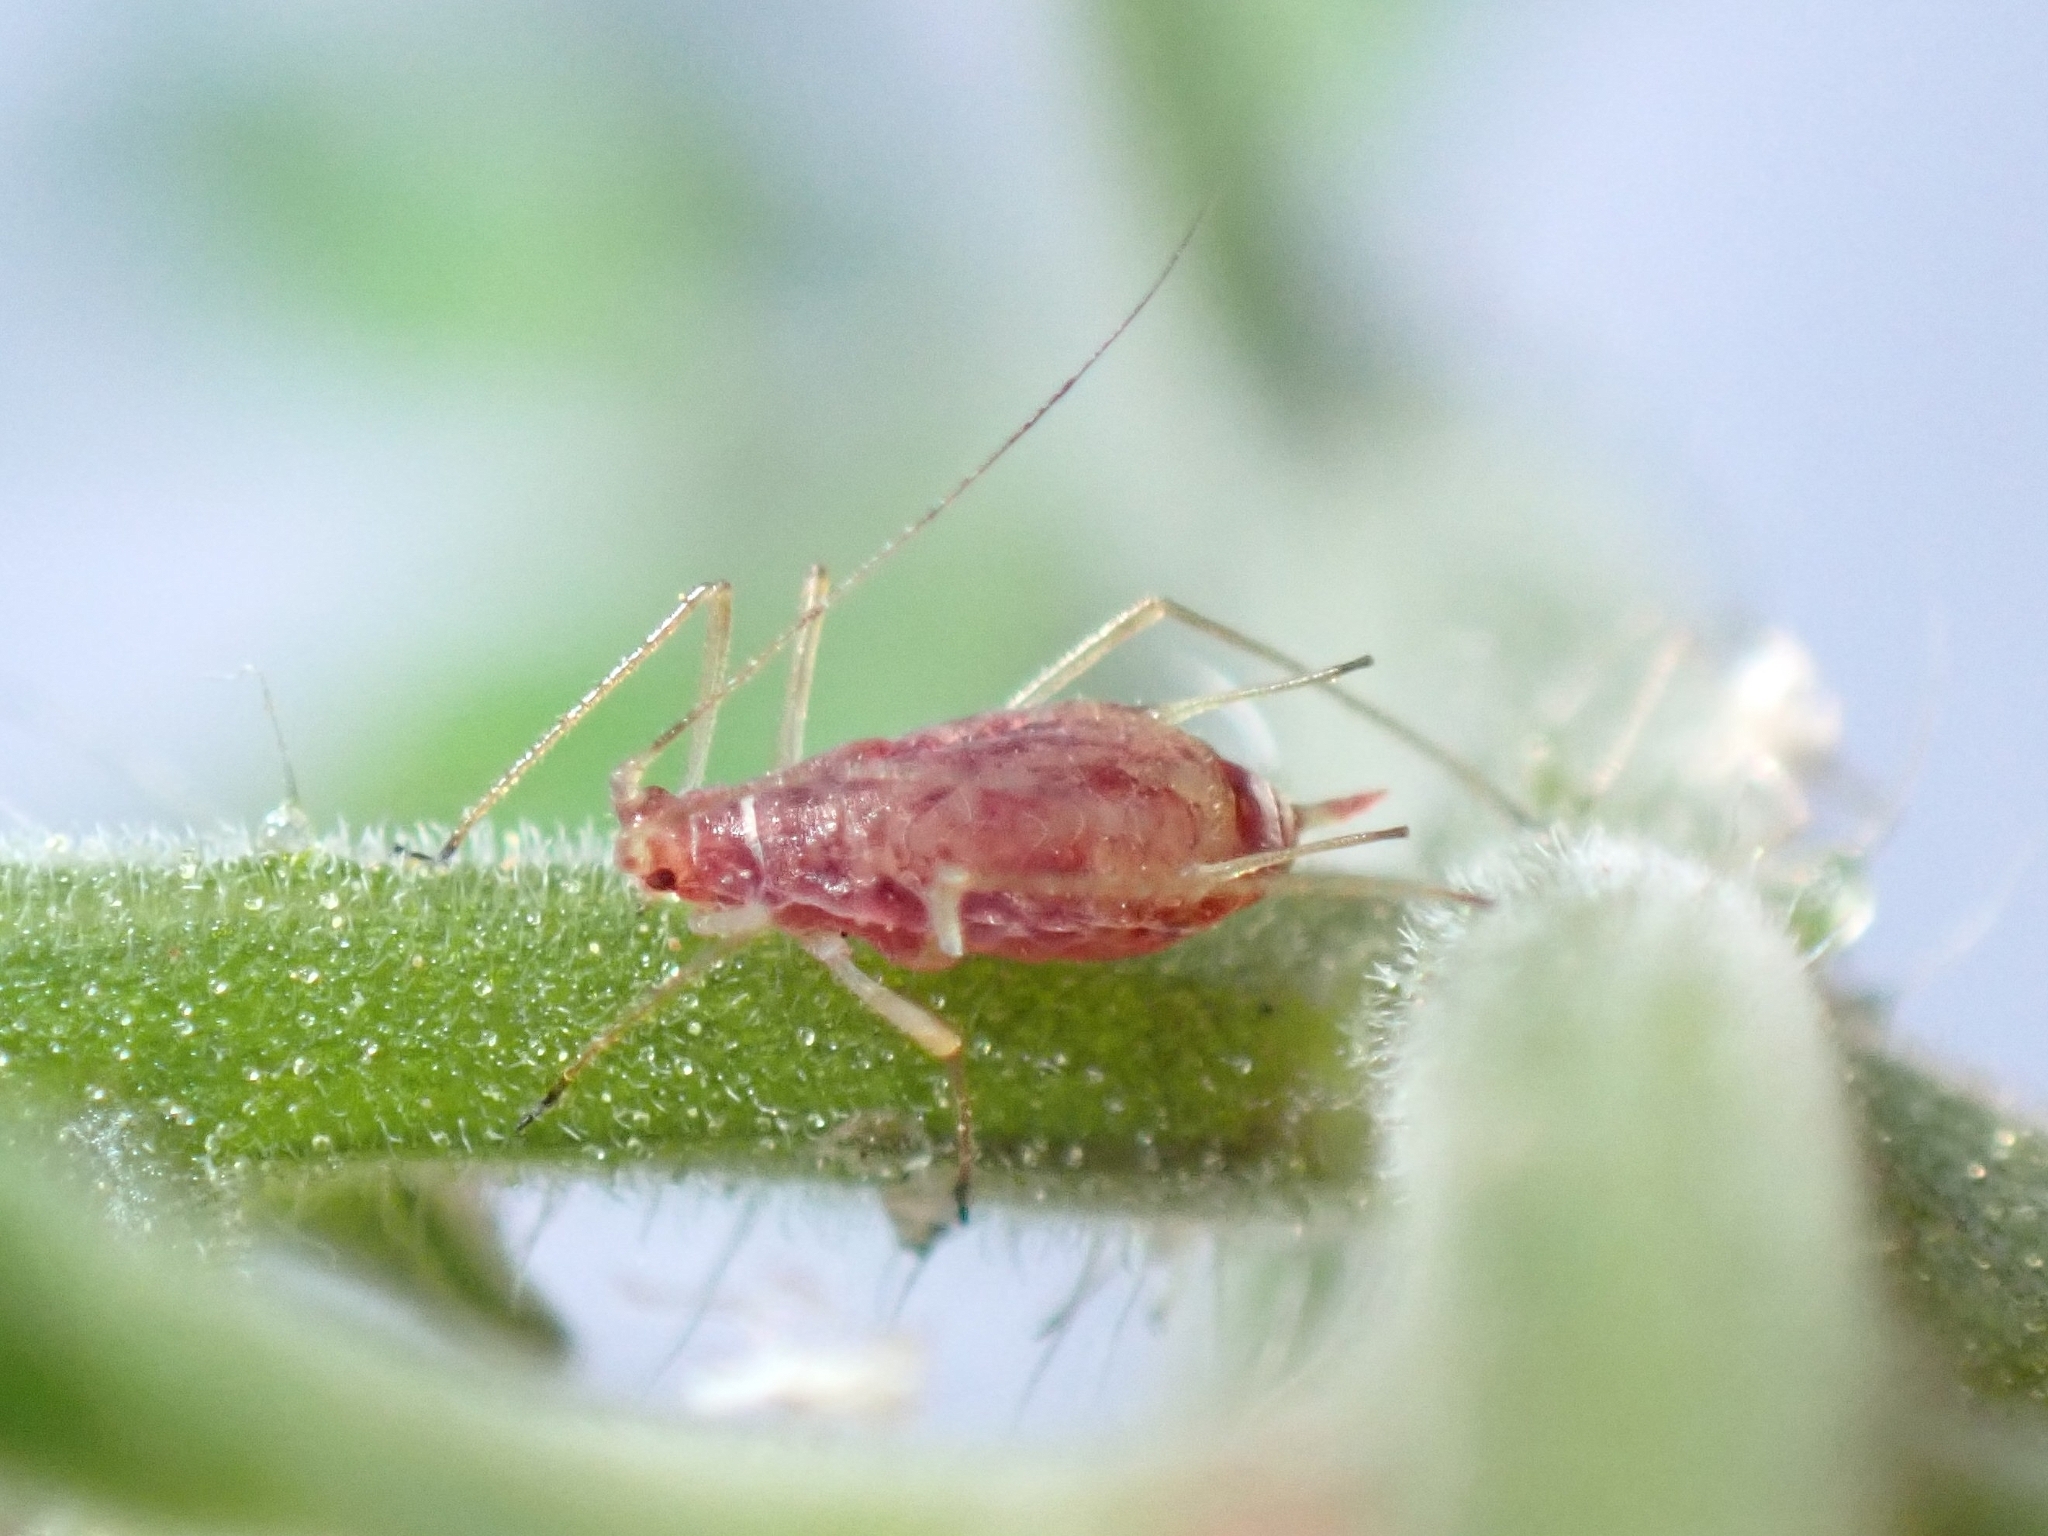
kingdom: Animalia
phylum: Arthropoda
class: Insecta
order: Hemiptera
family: Aphididae
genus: Macrosiphum
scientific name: Macrosiphum euphorbiae
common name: Potato aphid
